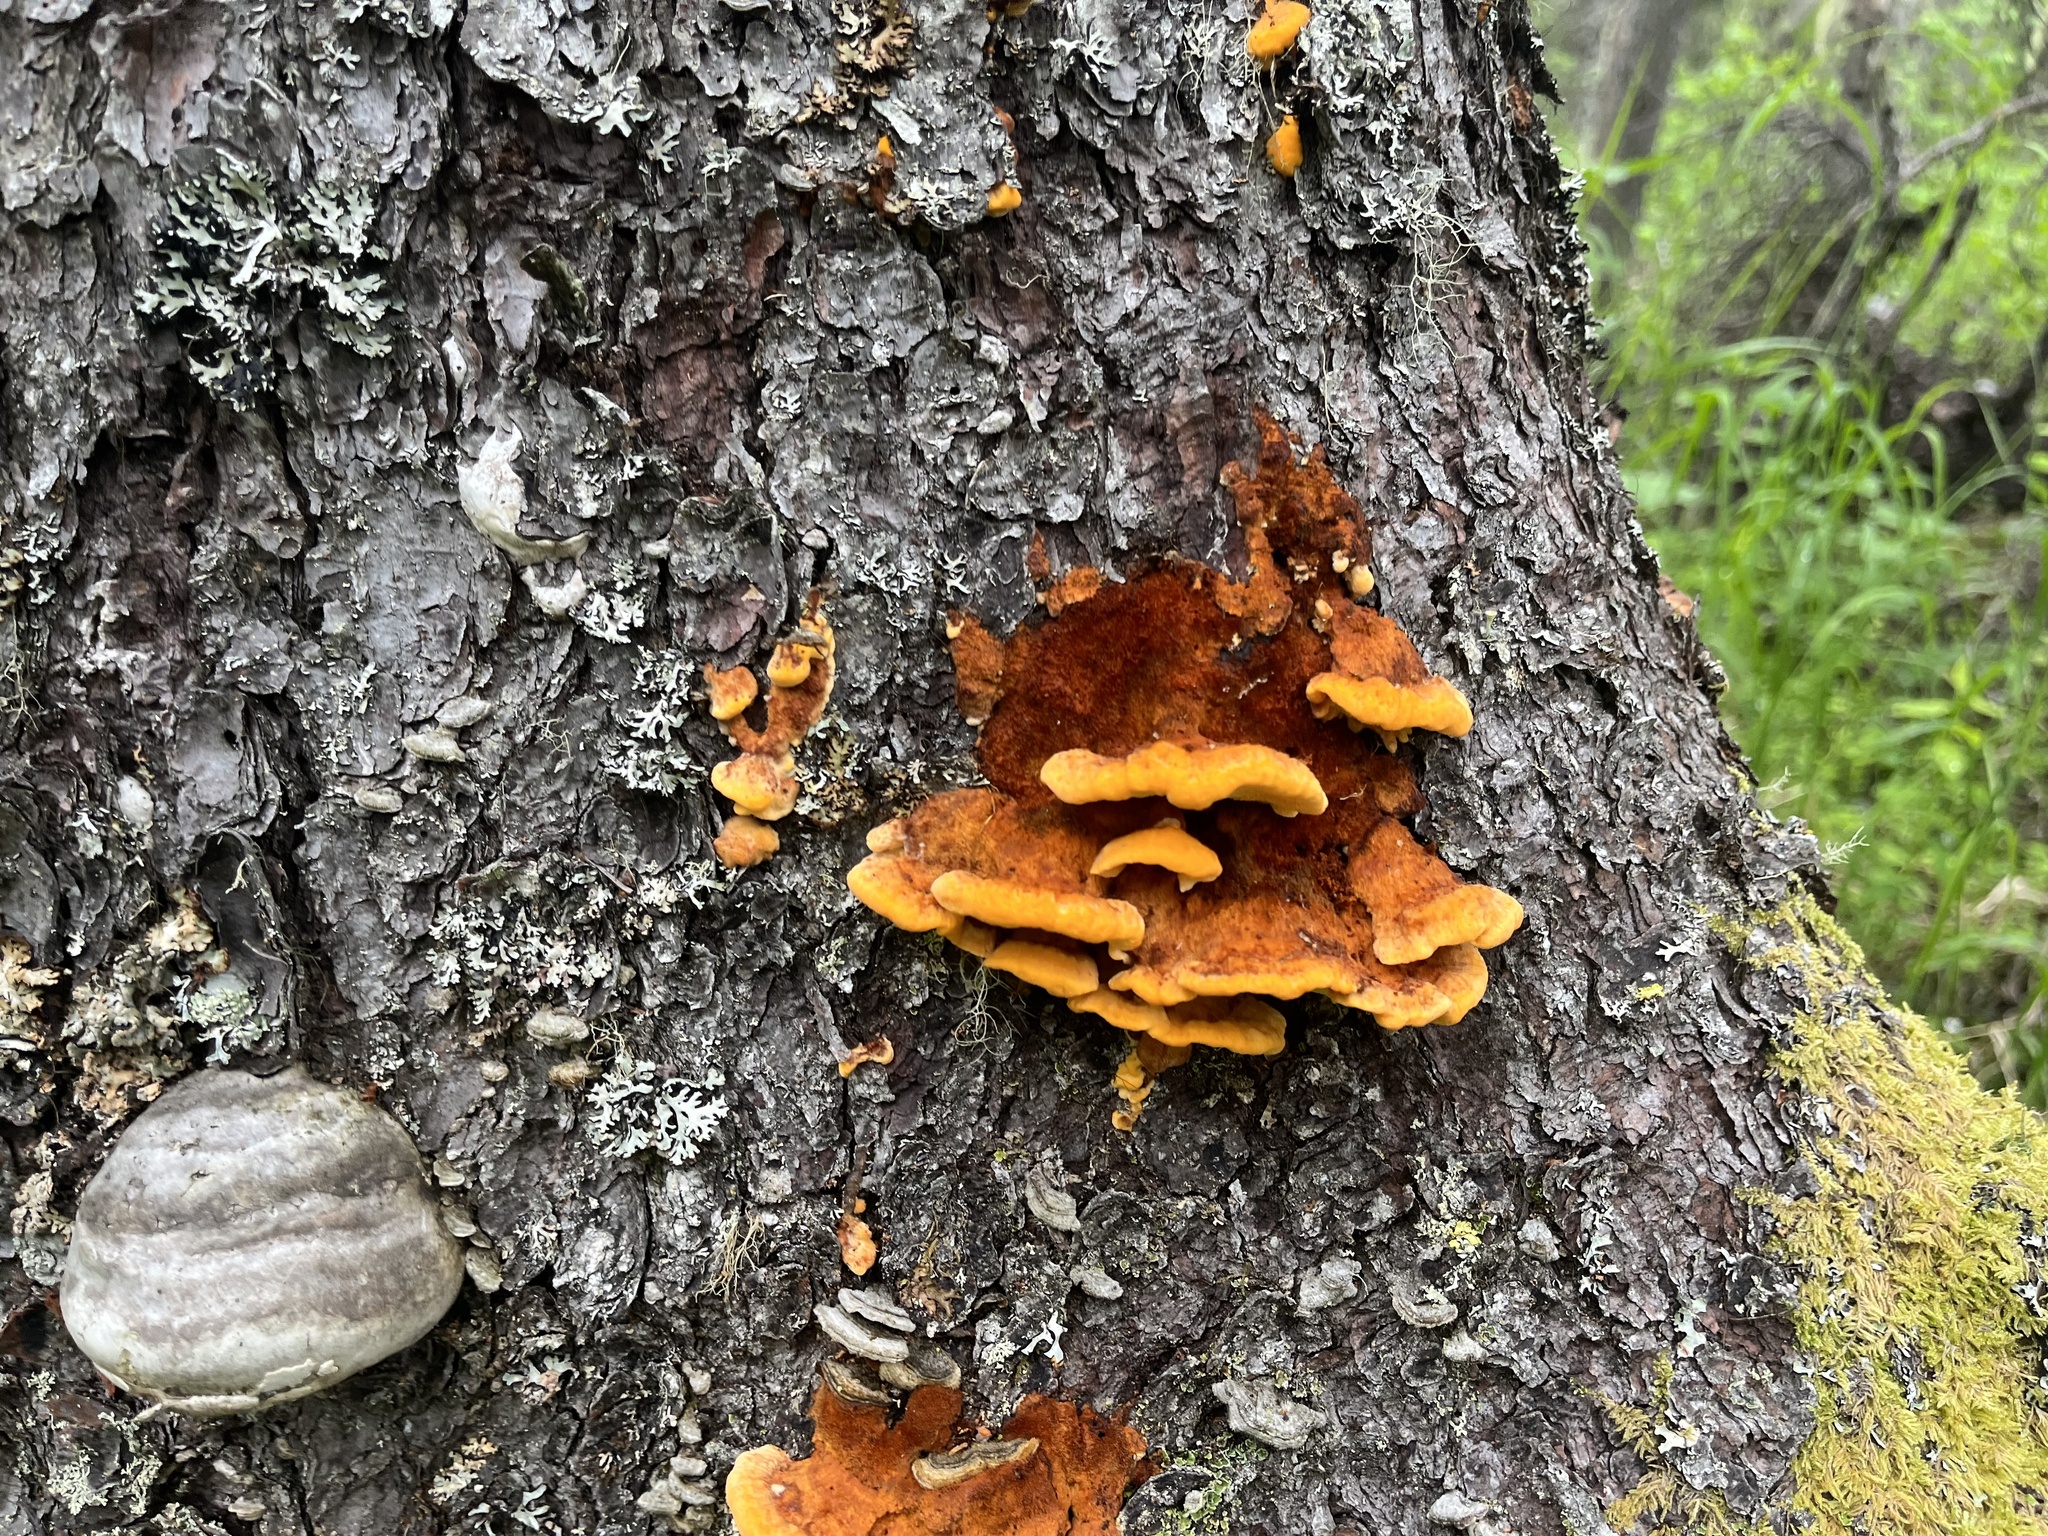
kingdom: Fungi
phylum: Basidiomycota
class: Agaricomycetes
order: Polyporales
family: Pycnoporellaceae
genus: Pycnoporellus
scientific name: Pycnoporellus fulgens
